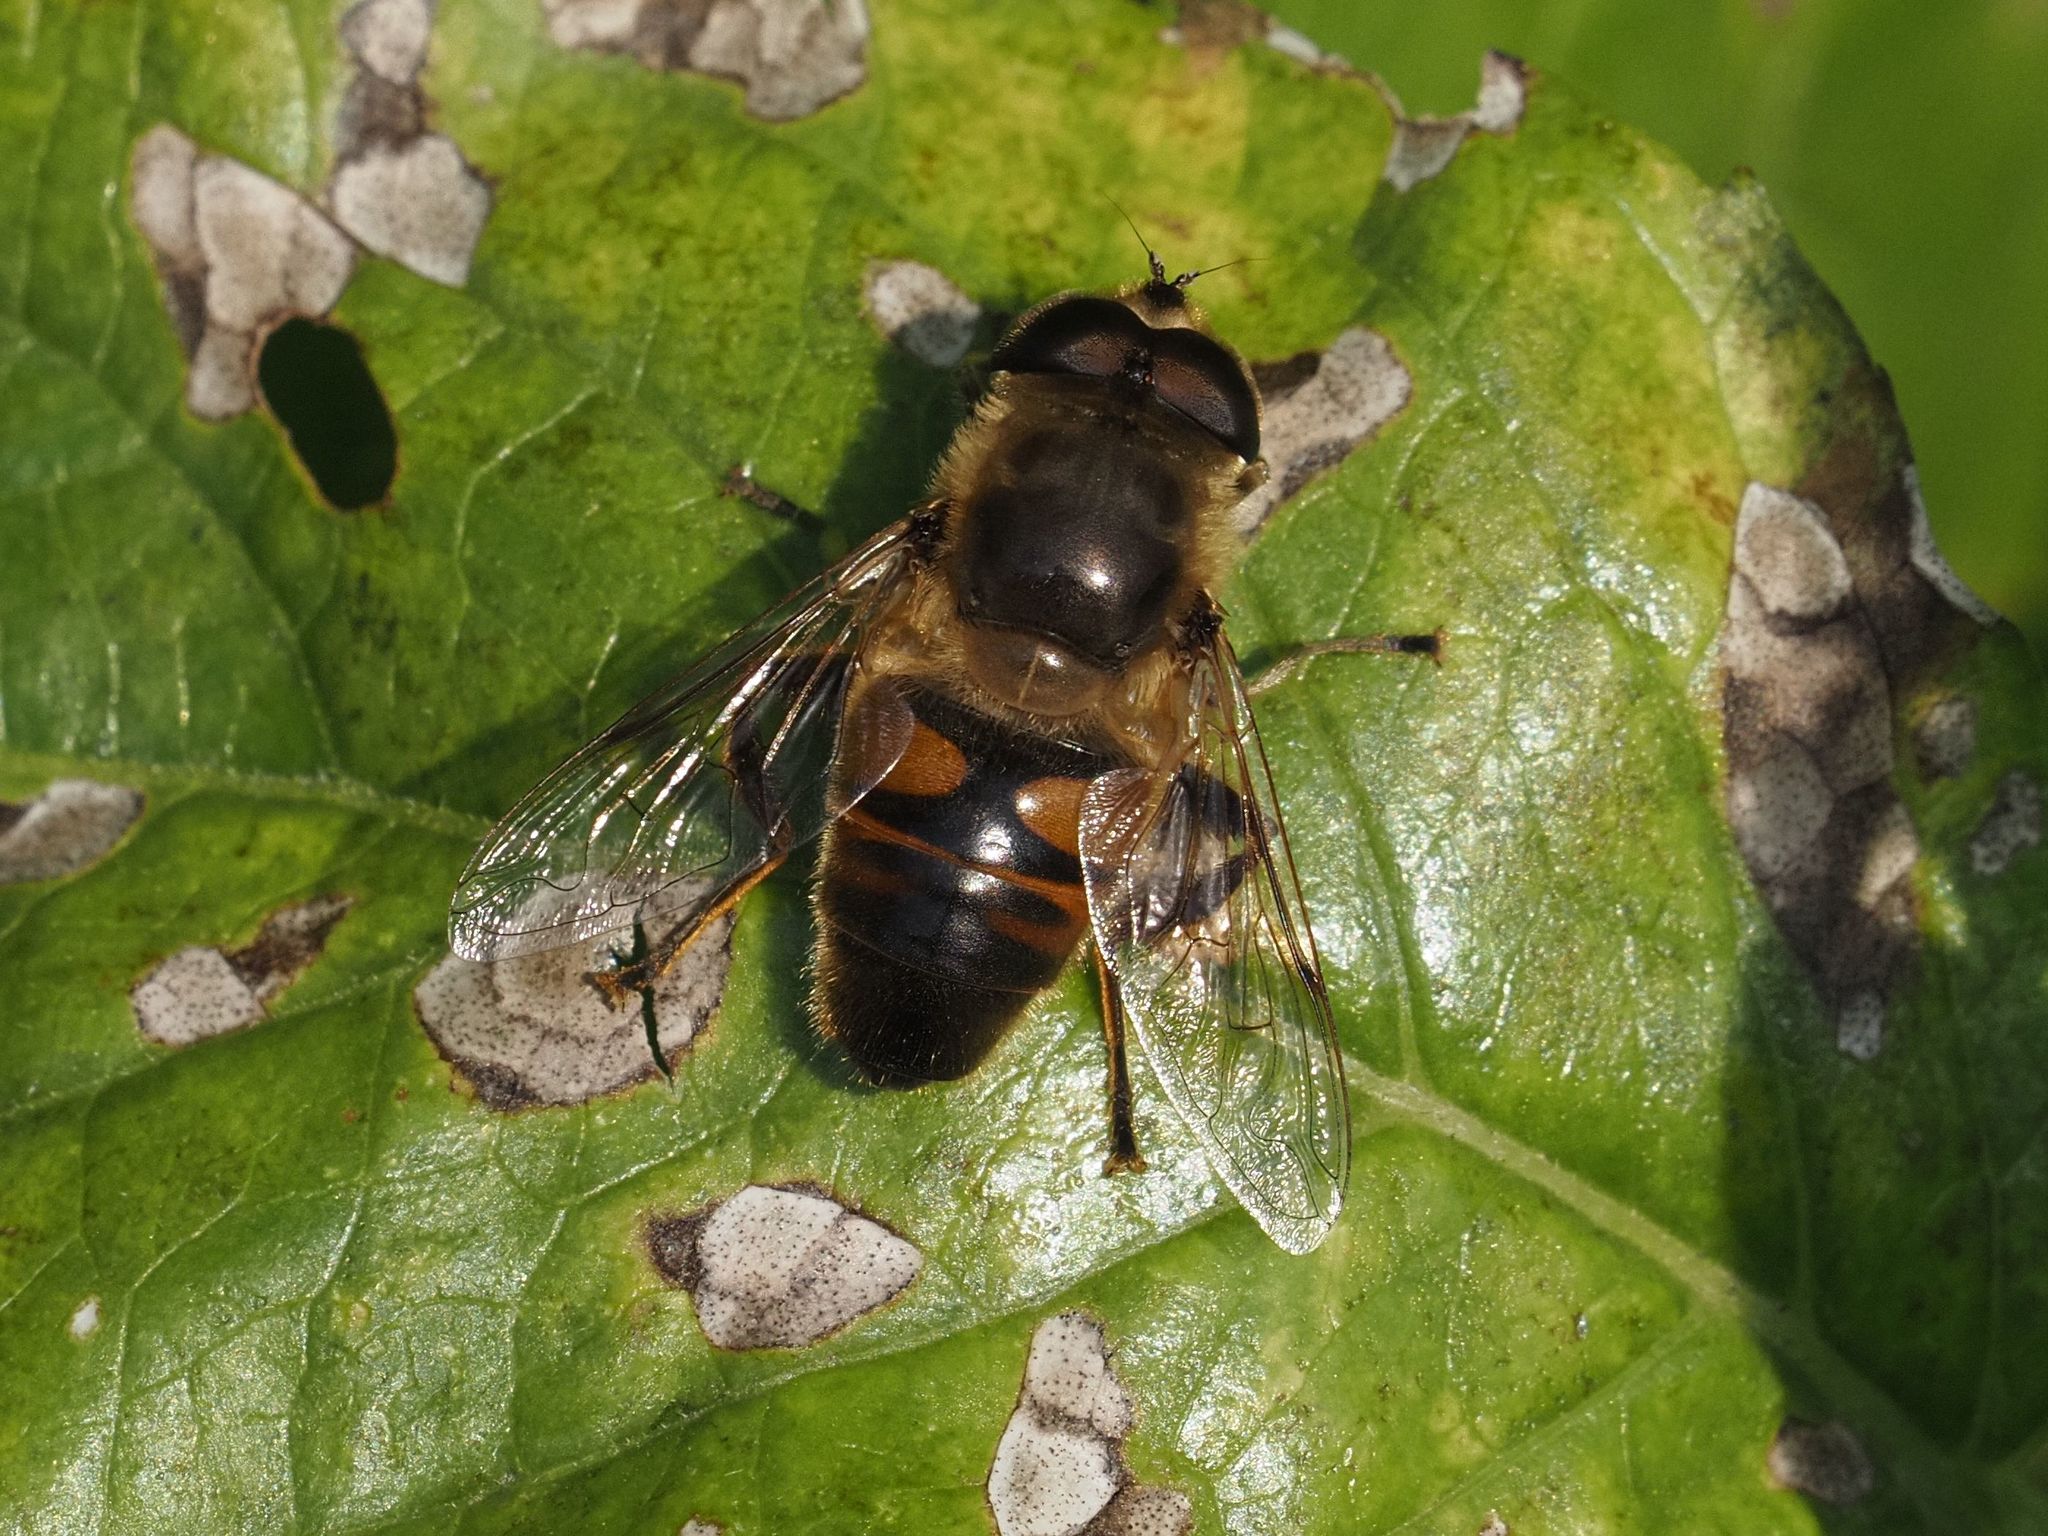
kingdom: Animalia
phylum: Arthropoda
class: Insecta
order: Diptera
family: Syrphidae
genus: Eristalis
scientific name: Eristalis tenax
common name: Drone fly
